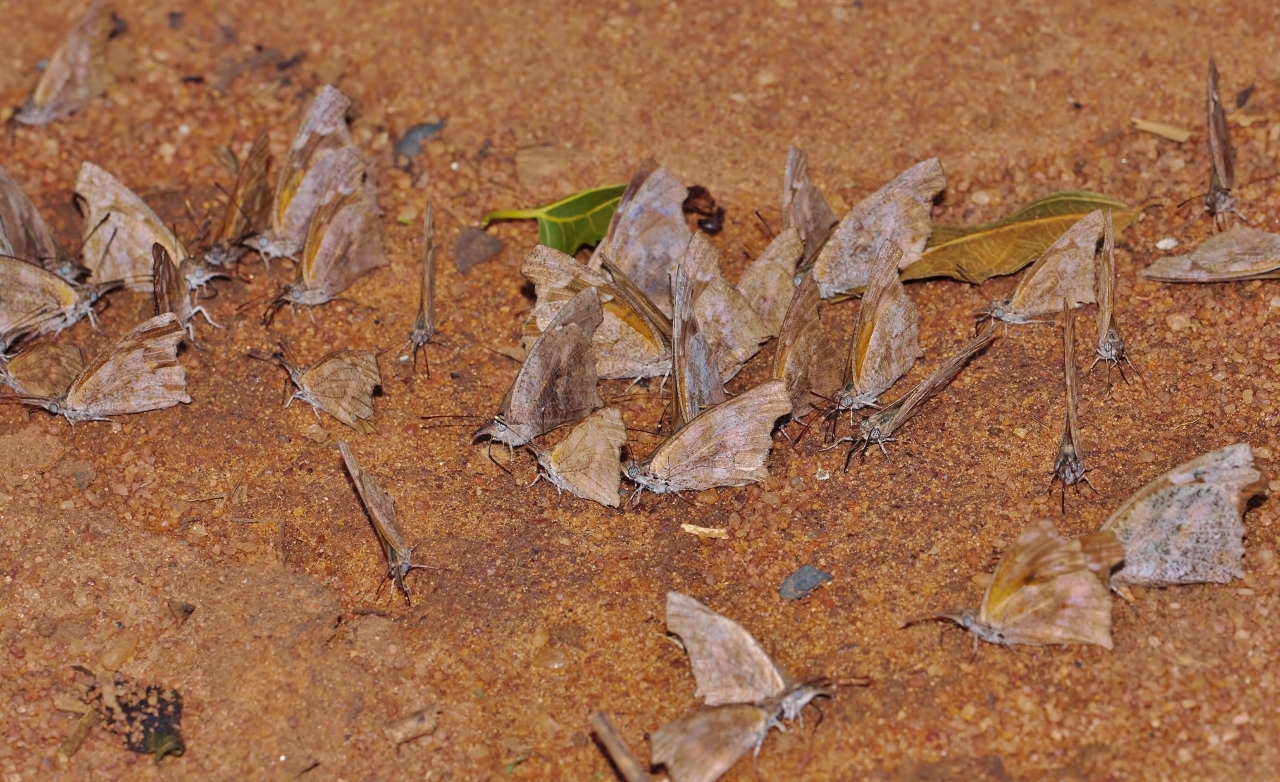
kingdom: Animalia
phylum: Arthropoda
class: Insecta
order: Lepidoptera
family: Nymphalidae
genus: Libythea
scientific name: Libythea laius
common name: African snout
